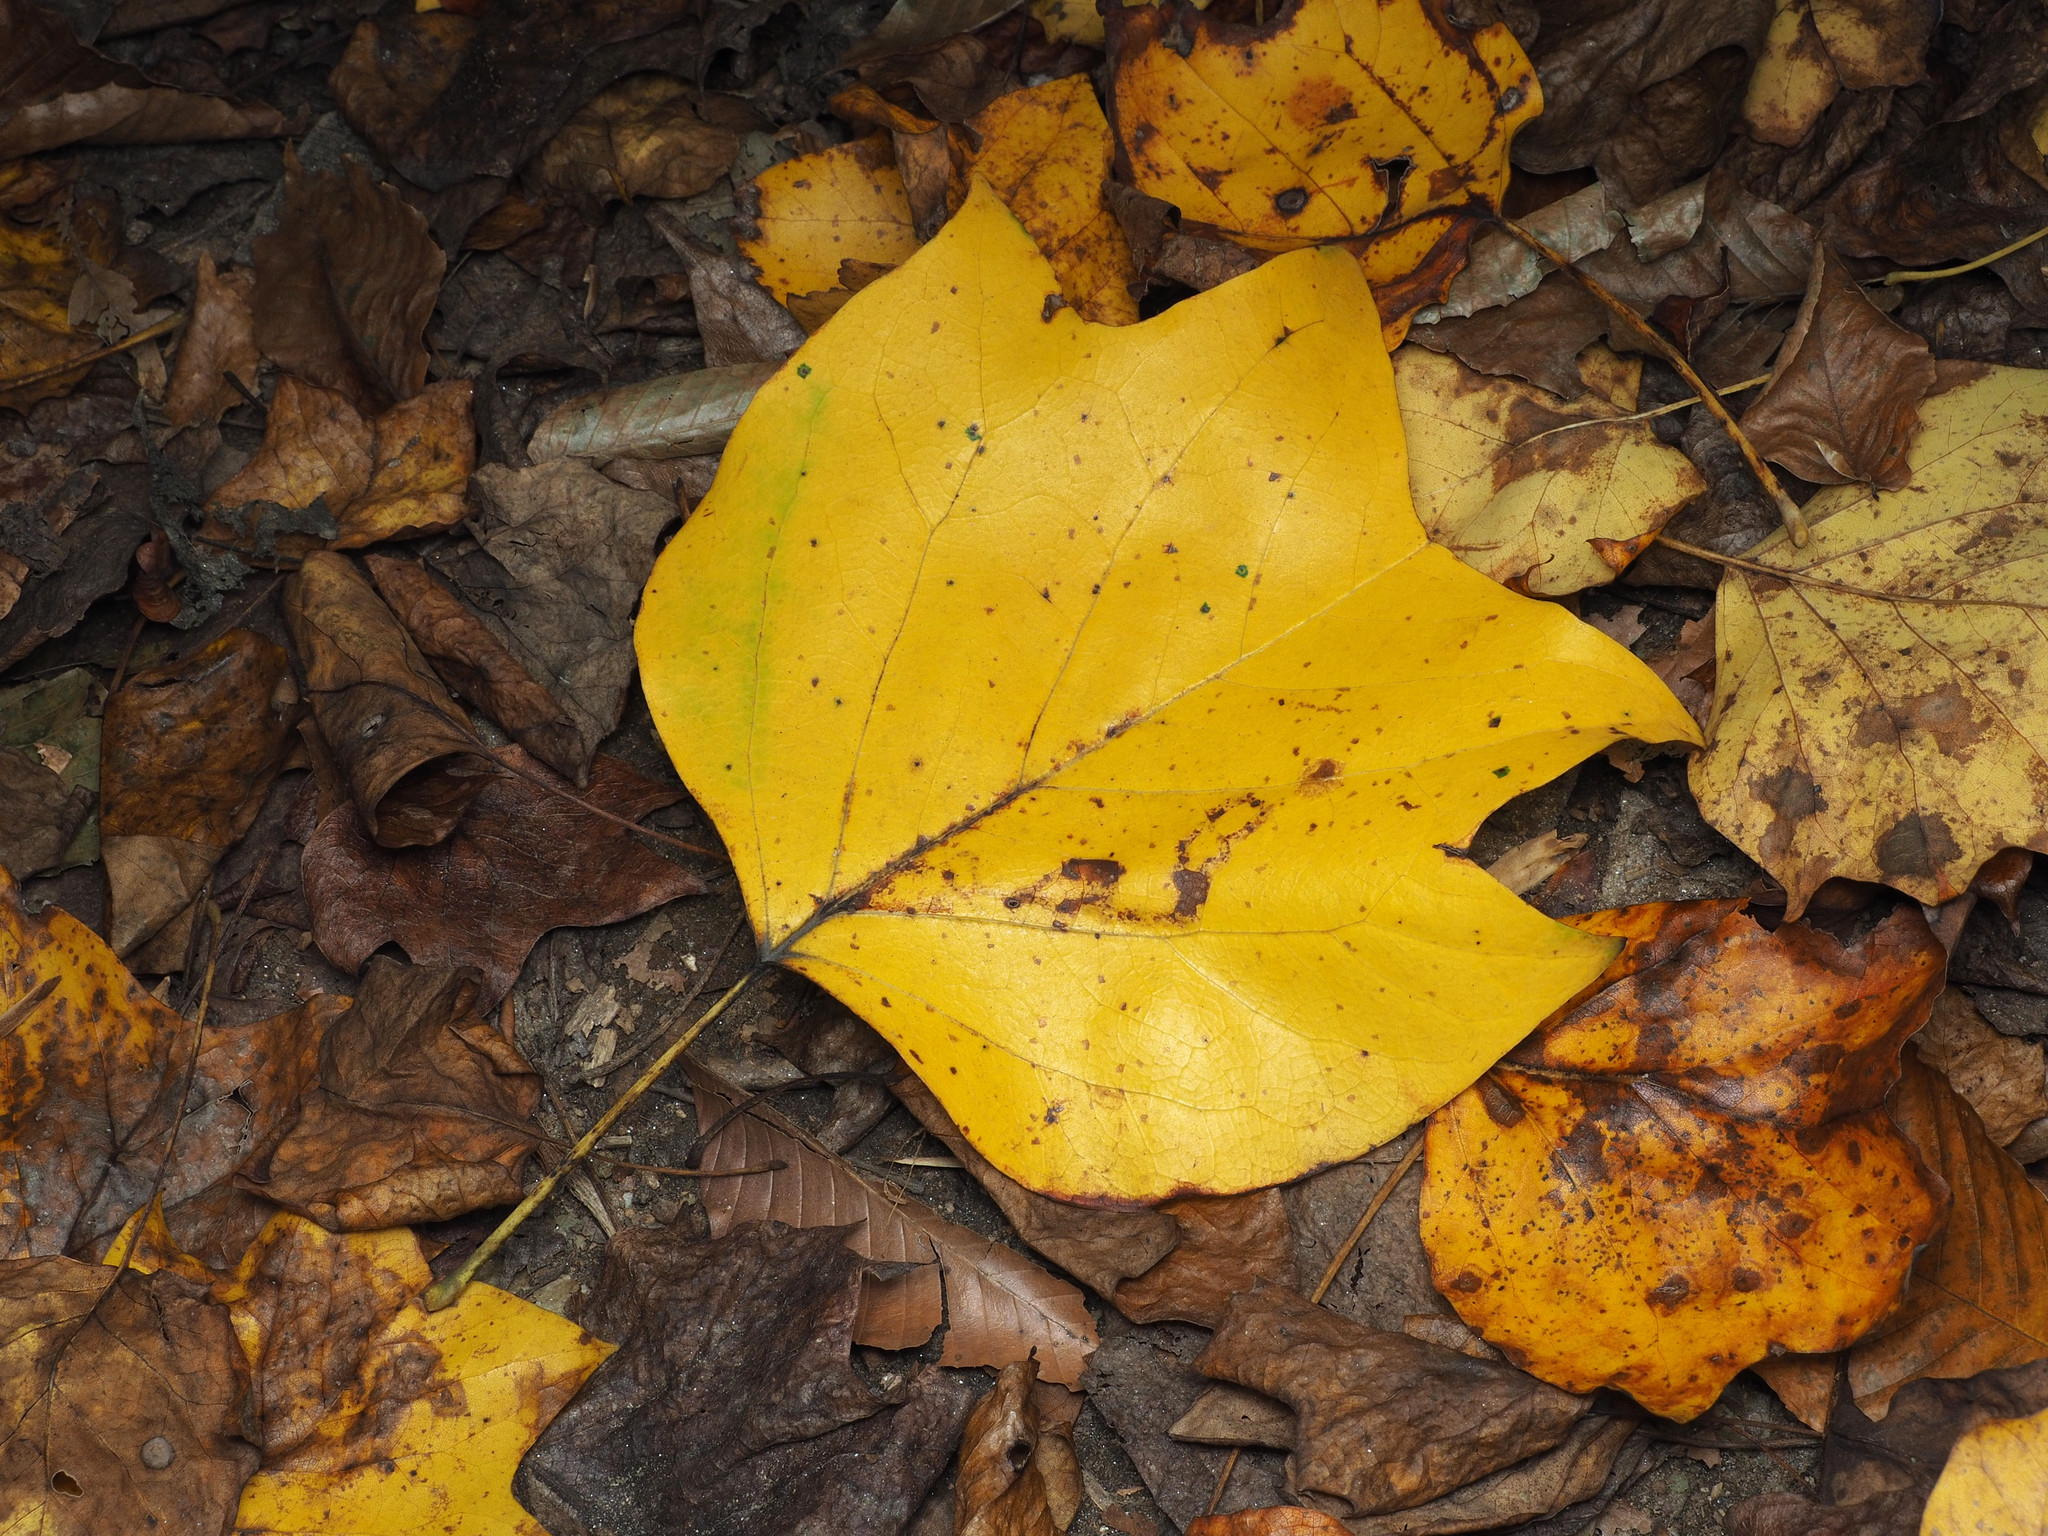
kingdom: Plantae
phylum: Tracheophyta
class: Magnoliopsida
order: Magnoliales
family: Magnoliaceae
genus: Liriodendron
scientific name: Liriodendron tulipifera
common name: Tulip tree
